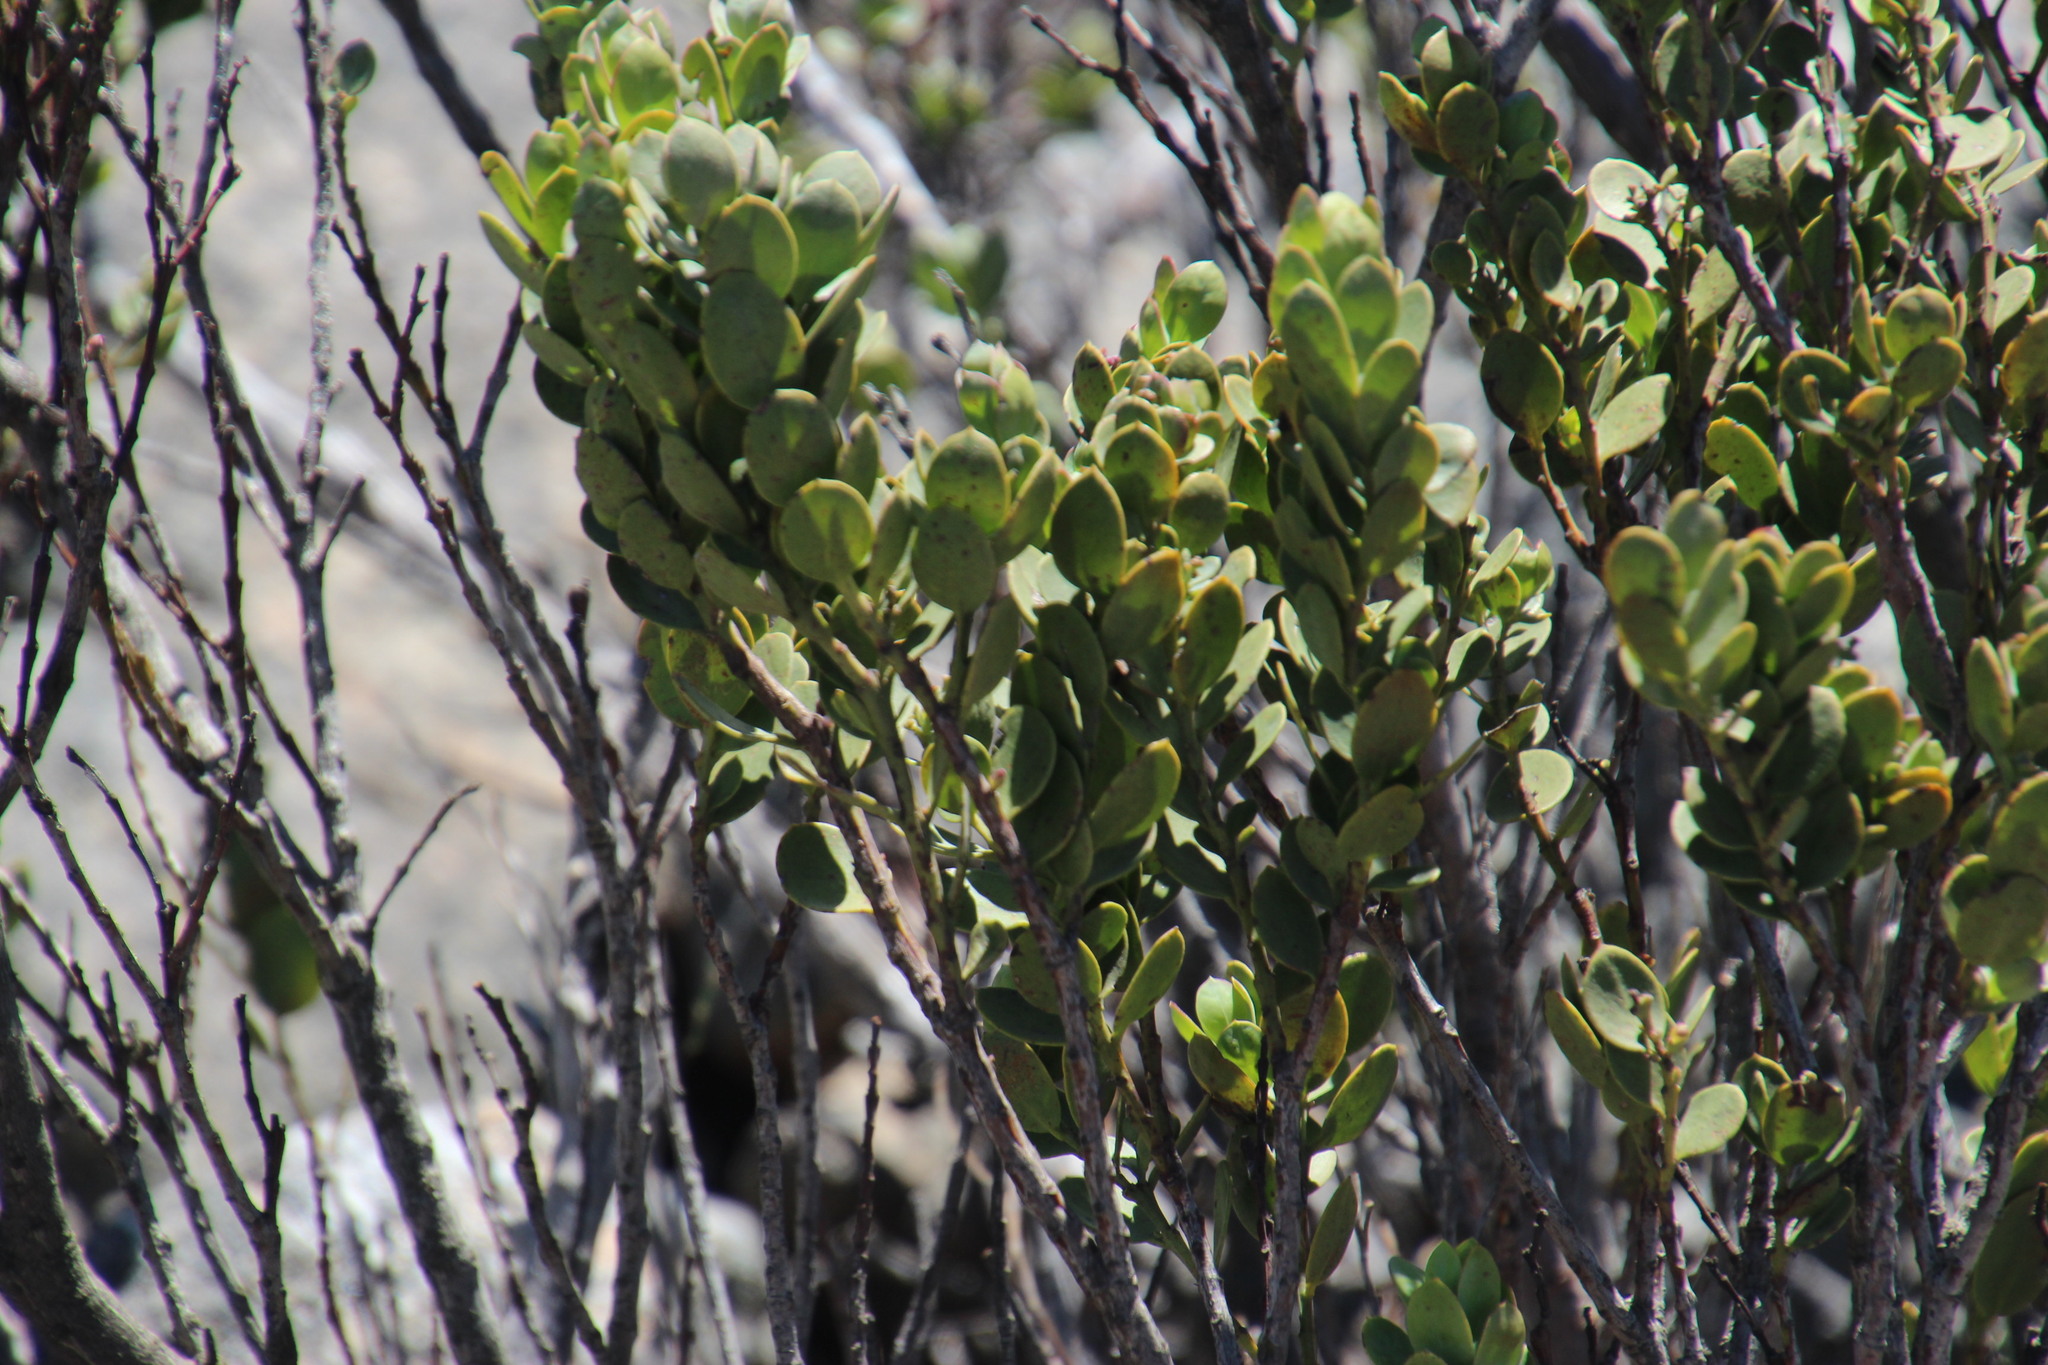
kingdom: Plantae
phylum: Tracheophyta
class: Magnoliopsida
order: Santalales
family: Santalaceae
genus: Osyris
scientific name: Osyris compressa
